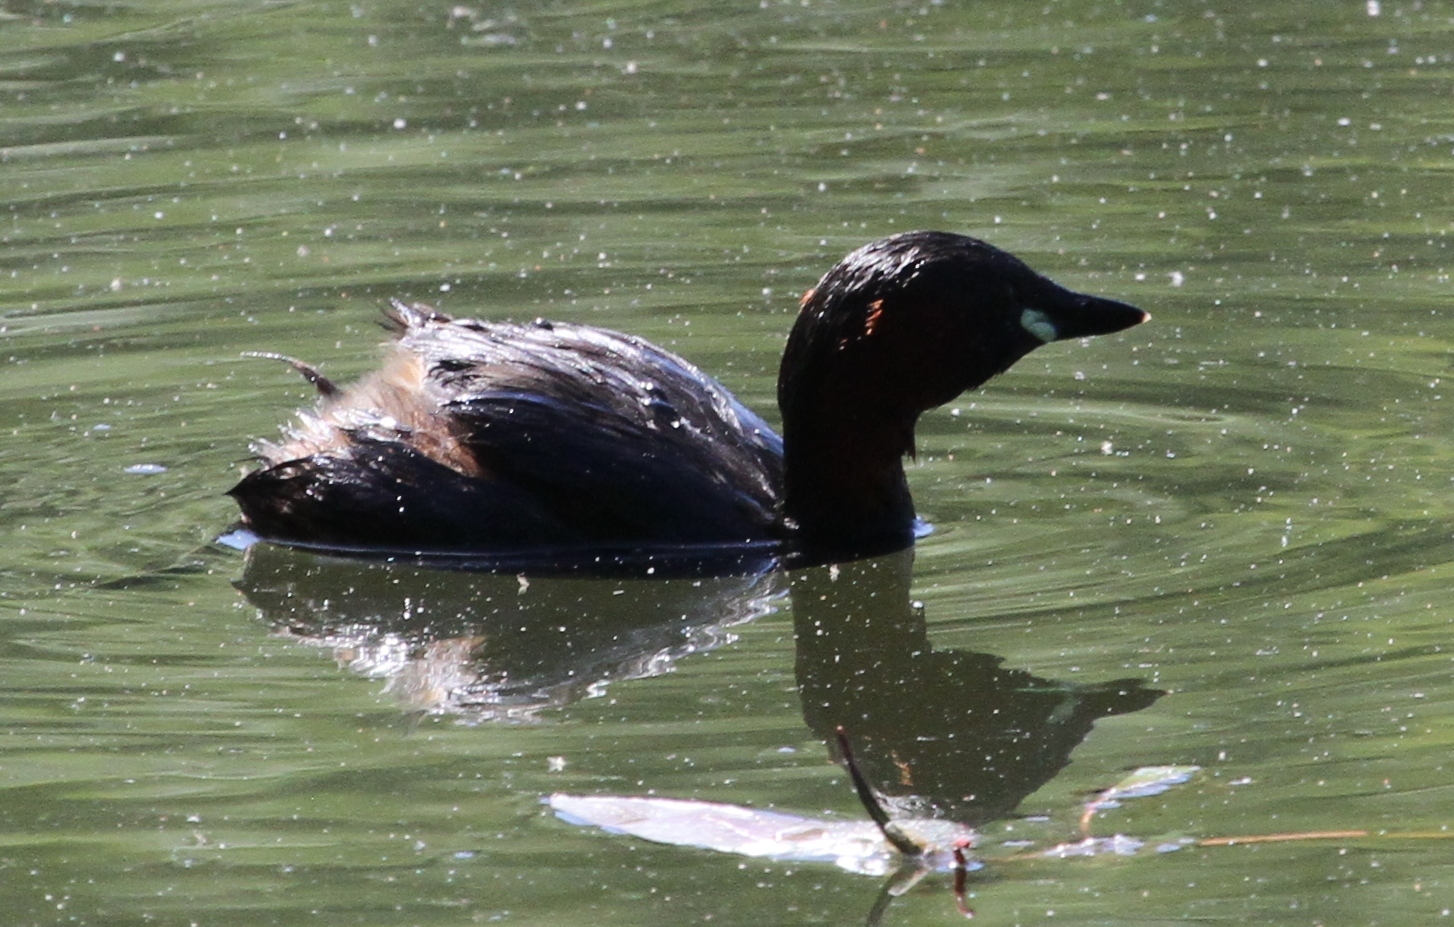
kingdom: Animalia
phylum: Chordata
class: Aves
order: Podicipediformes
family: Podicipedidae
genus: Tachybaptus
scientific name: Tachybaptus ruficollis
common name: Little grebe
